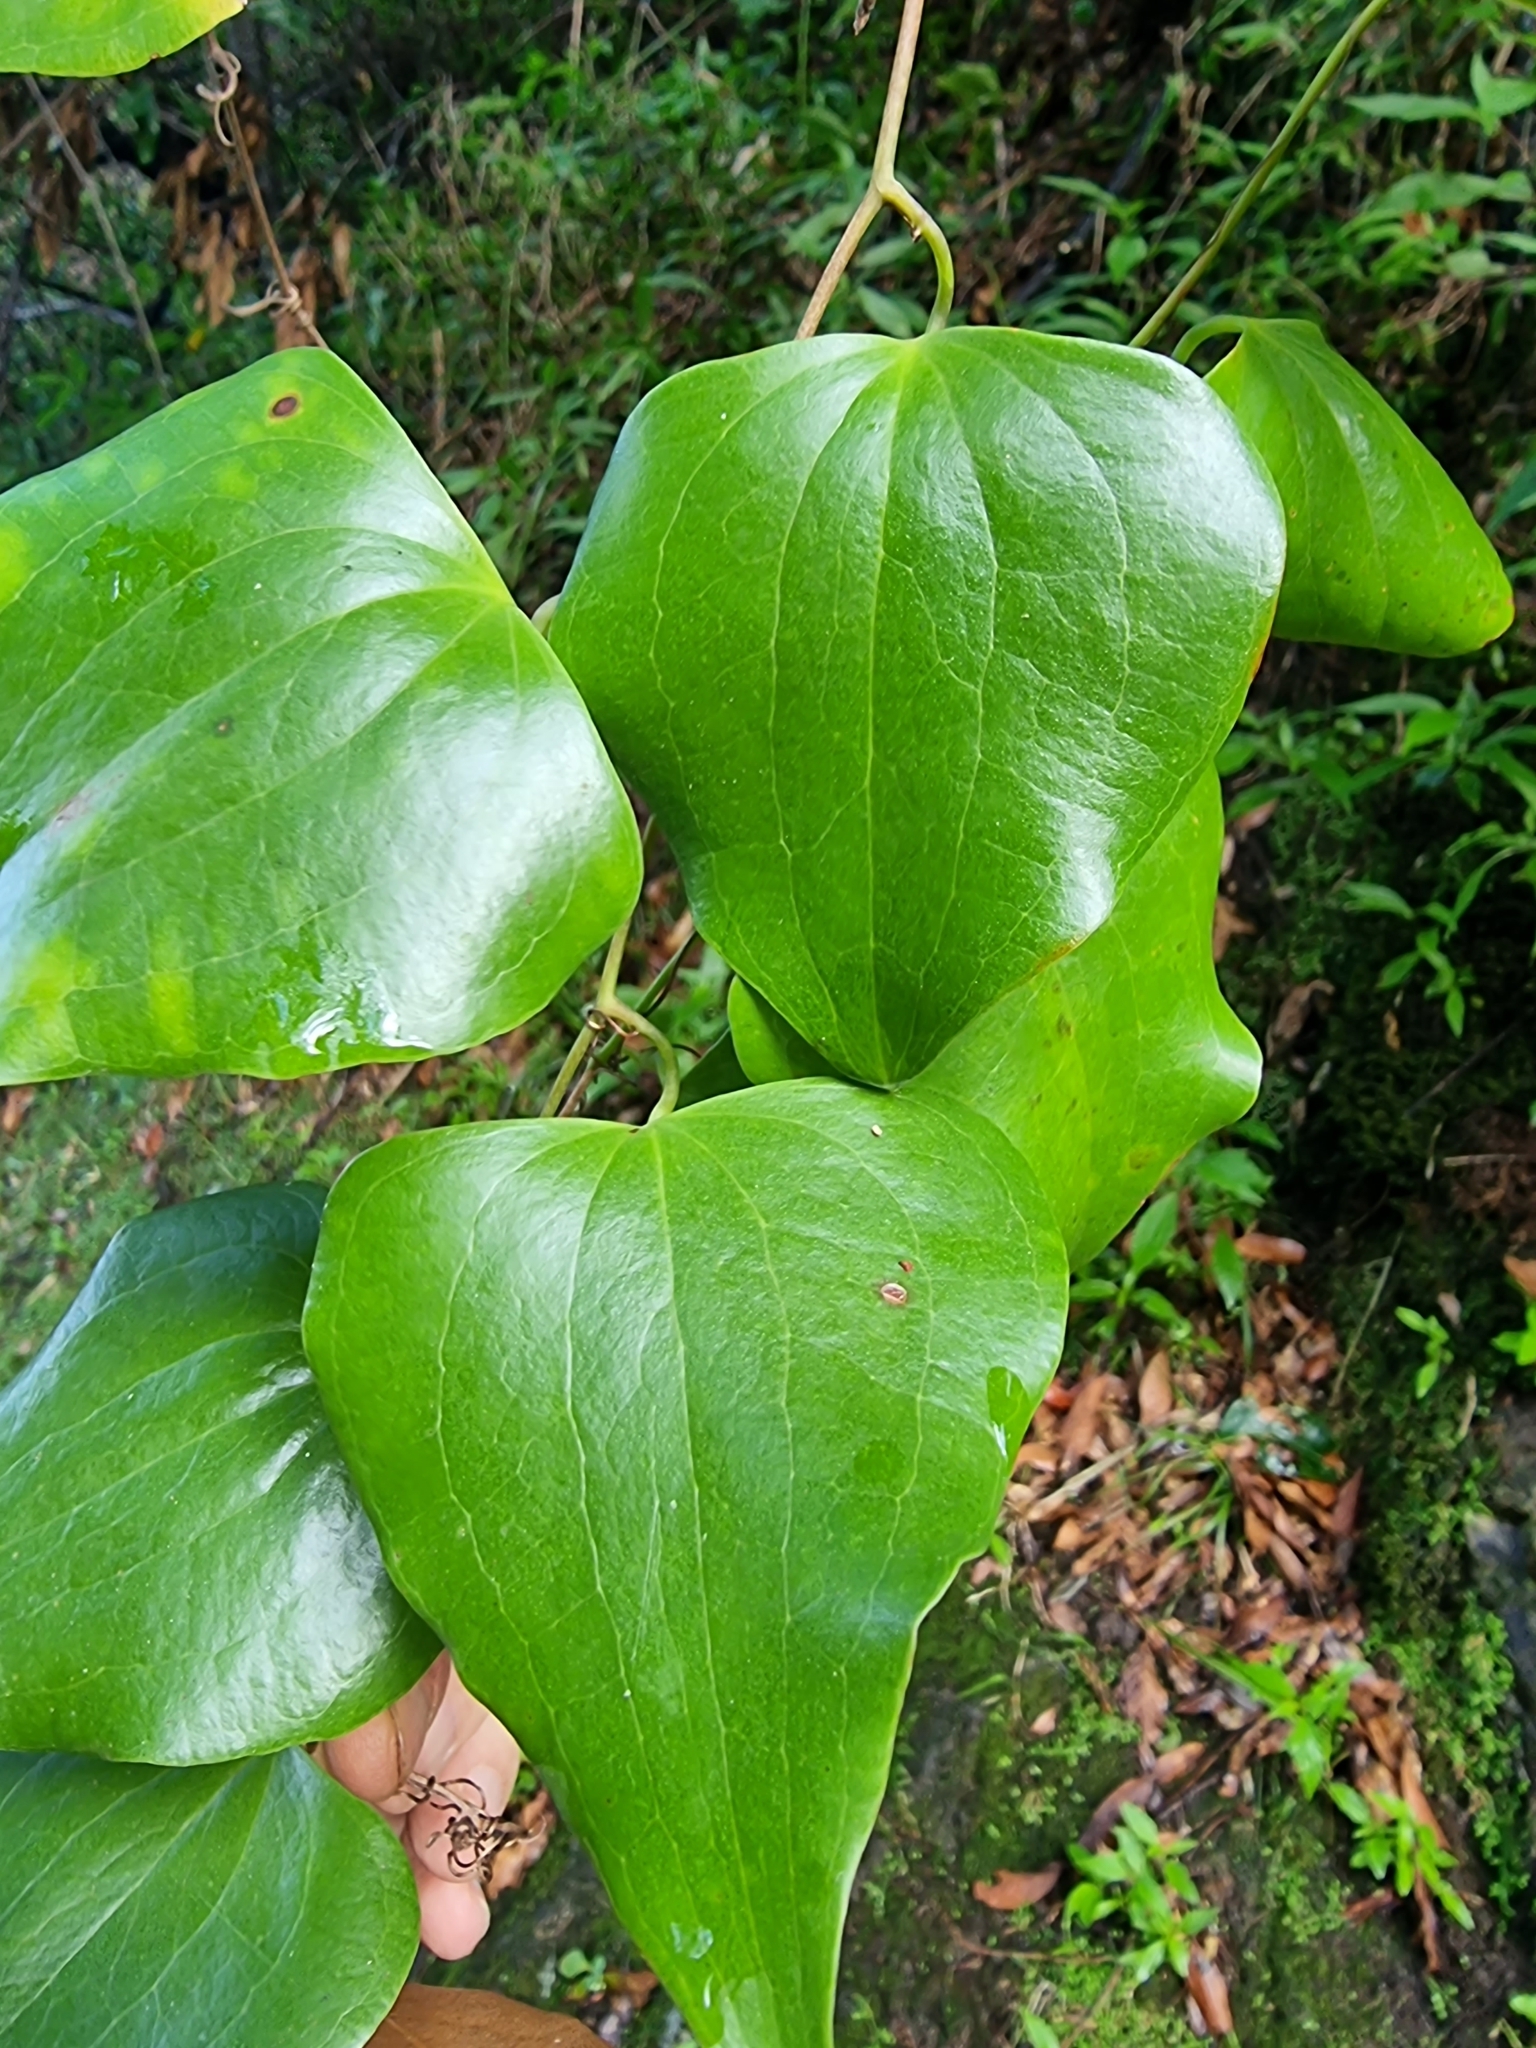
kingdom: Plantae
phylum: Tracheophyta
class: Liliopsida
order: Liliales
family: Smilacaceae
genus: Smilax
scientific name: Smilax aspera
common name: Common smilax
